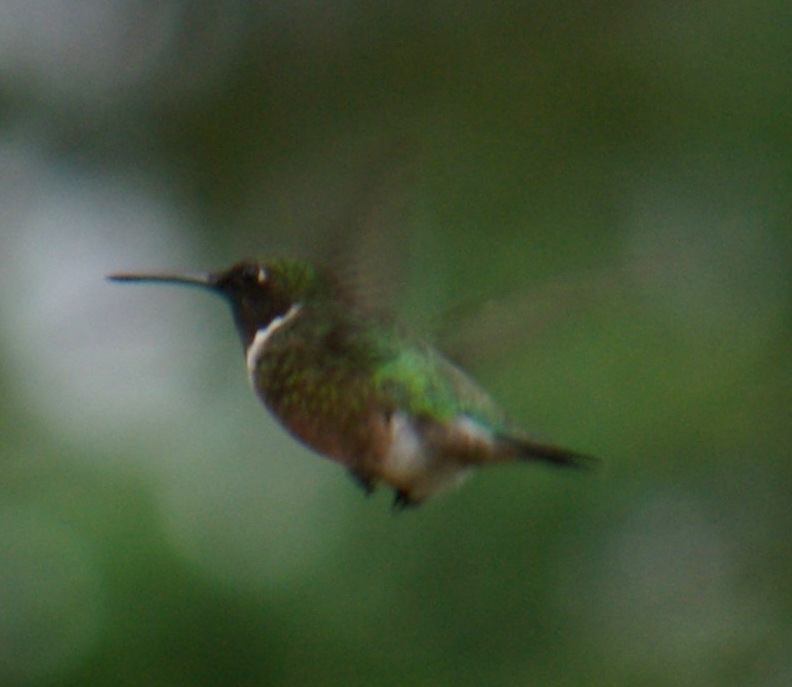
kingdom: Animalia
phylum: Chordata
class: Aves
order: Apodiformes
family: Trochilidae
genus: Archilochus
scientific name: Archilochus colubris
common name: Ruby-throated hummingbird
